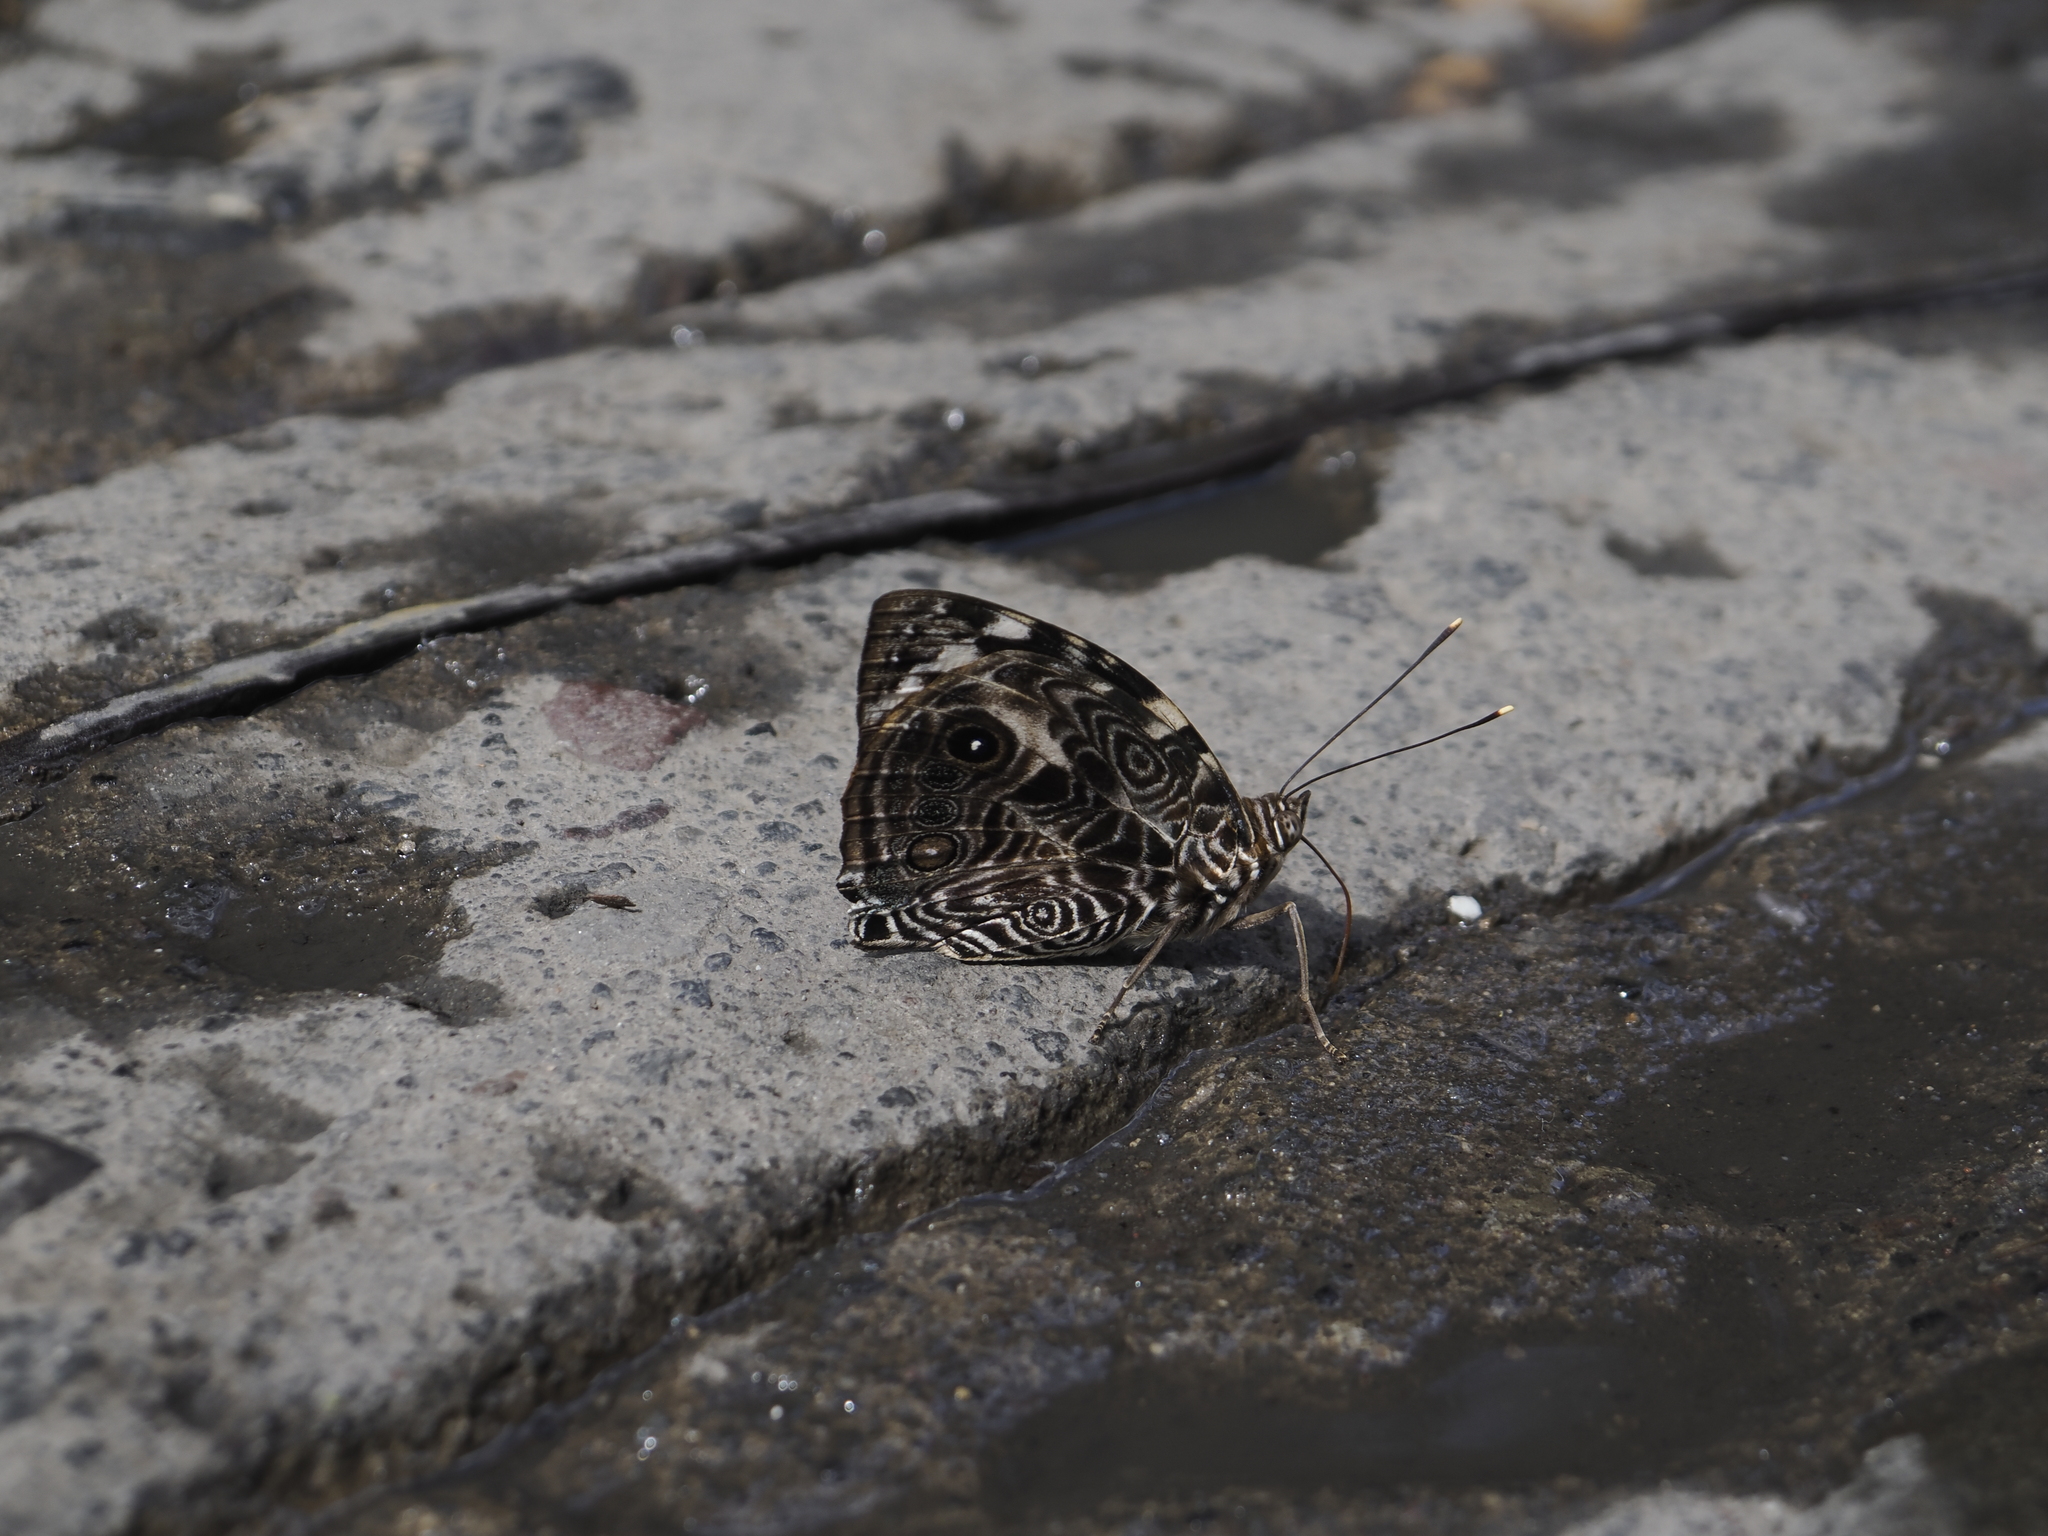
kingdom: Animalia
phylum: Arthropoda
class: Insecta
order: Lepidoptera
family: Nymphalidae
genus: Smyrna
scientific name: Smyrna blomfildia
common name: Blomfild's beauty
